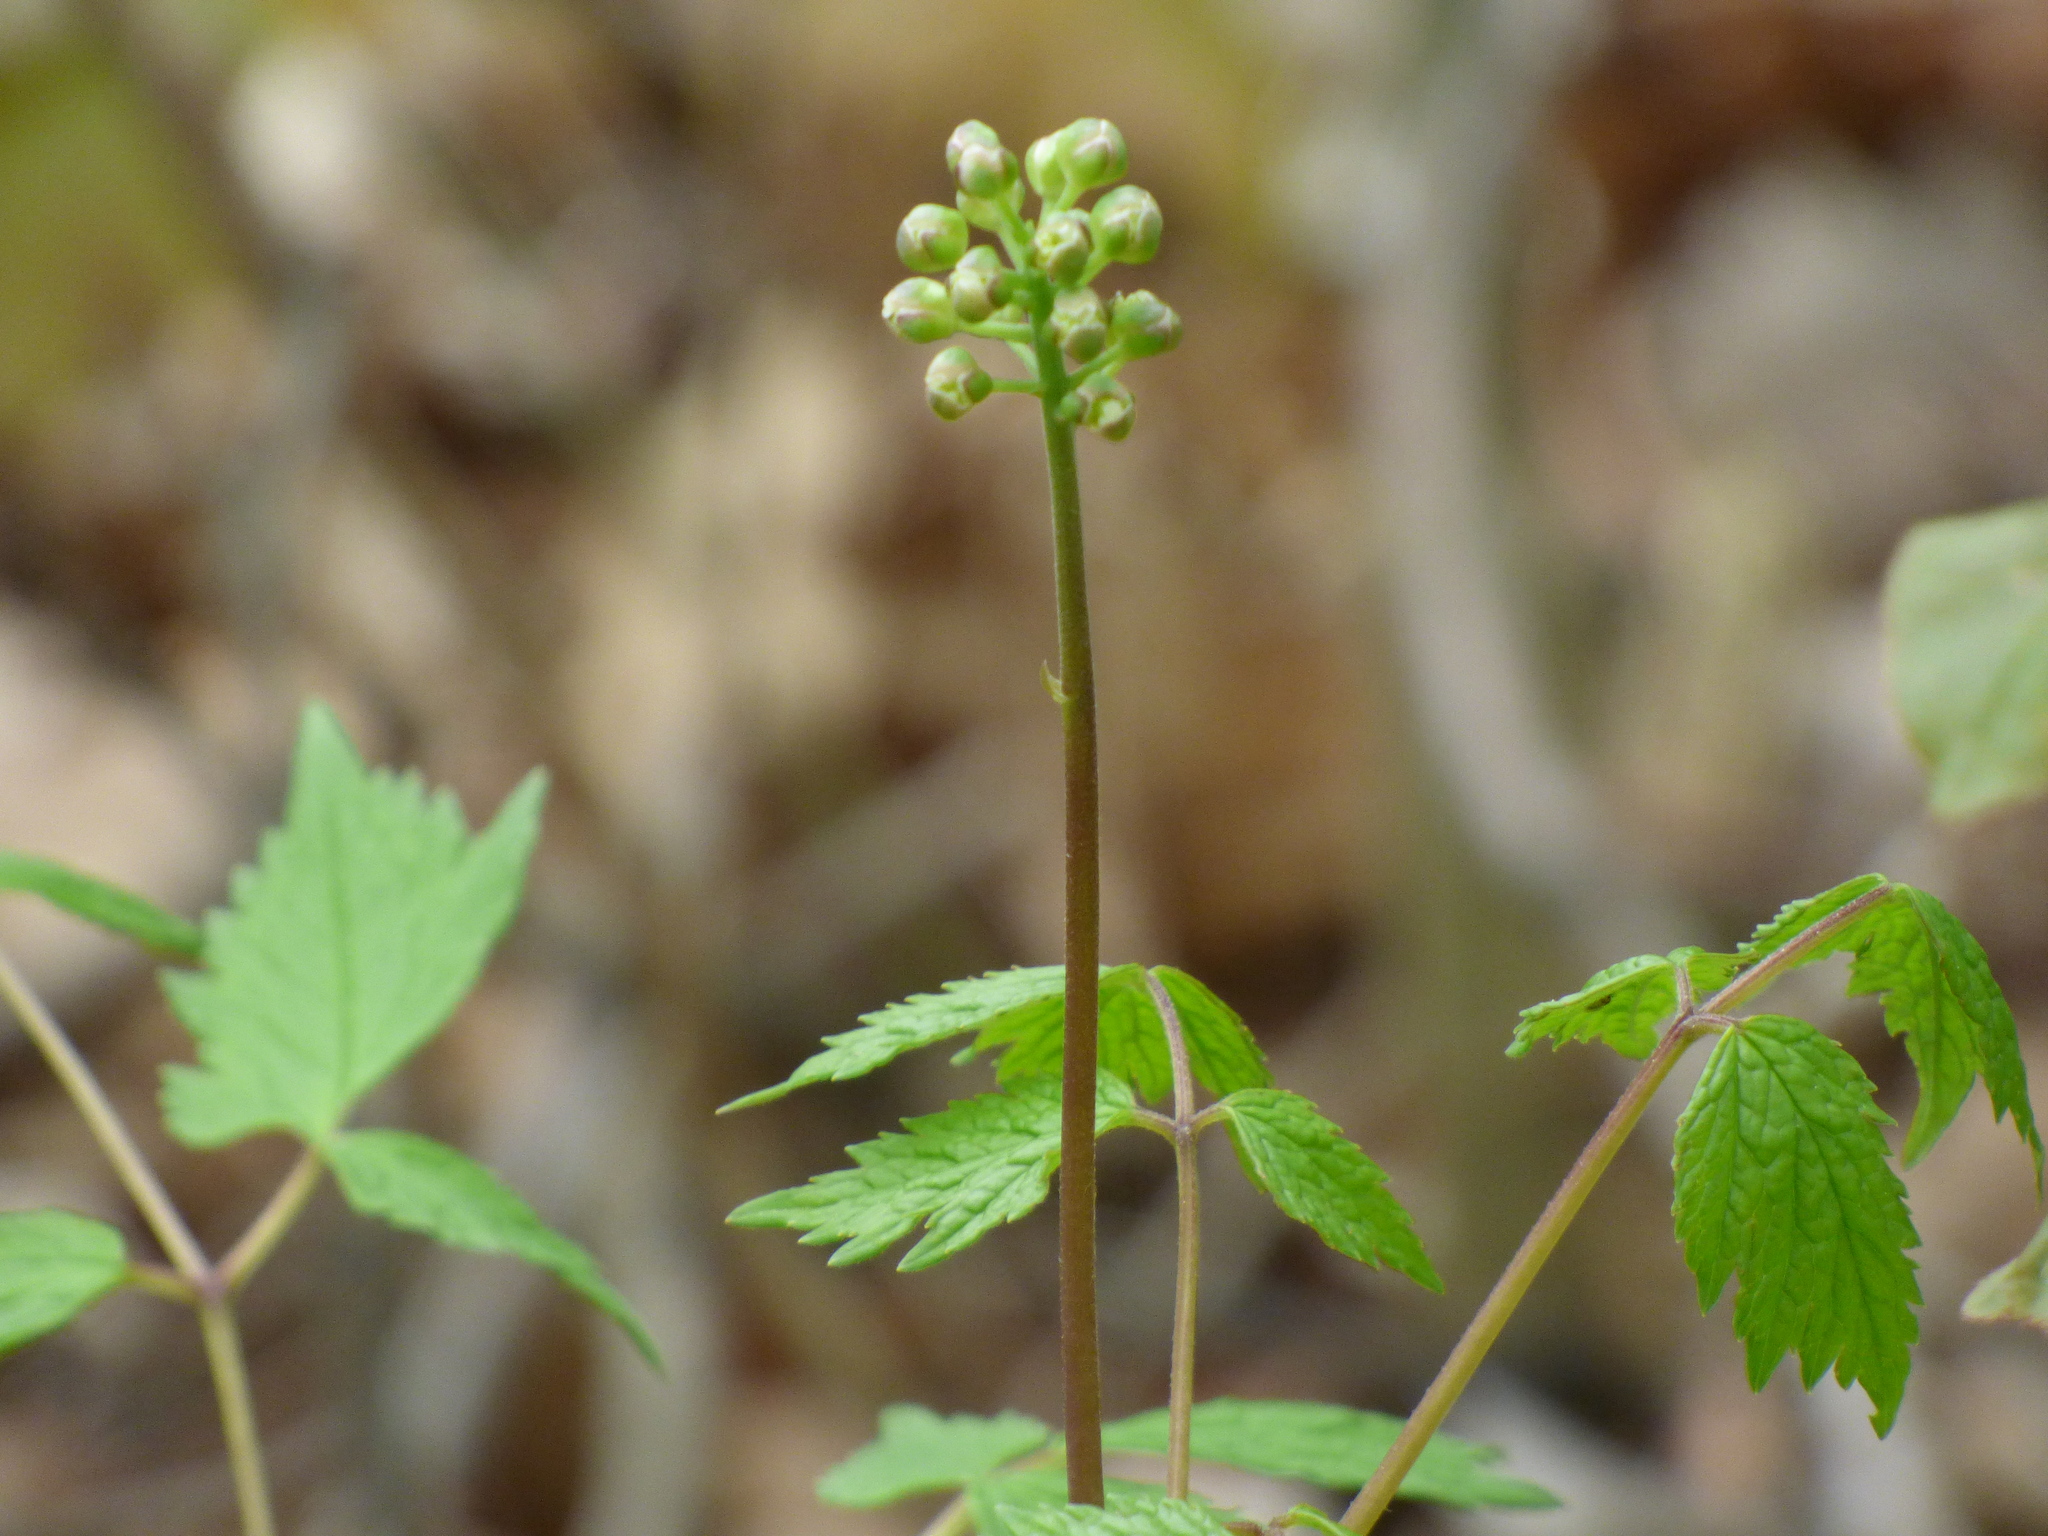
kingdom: Plantae
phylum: Tracheophyta
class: Magnoliopsida
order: Ranunculales
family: Ranunculaceae
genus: Actaea
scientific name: Actaea rubra
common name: Red baneberry
